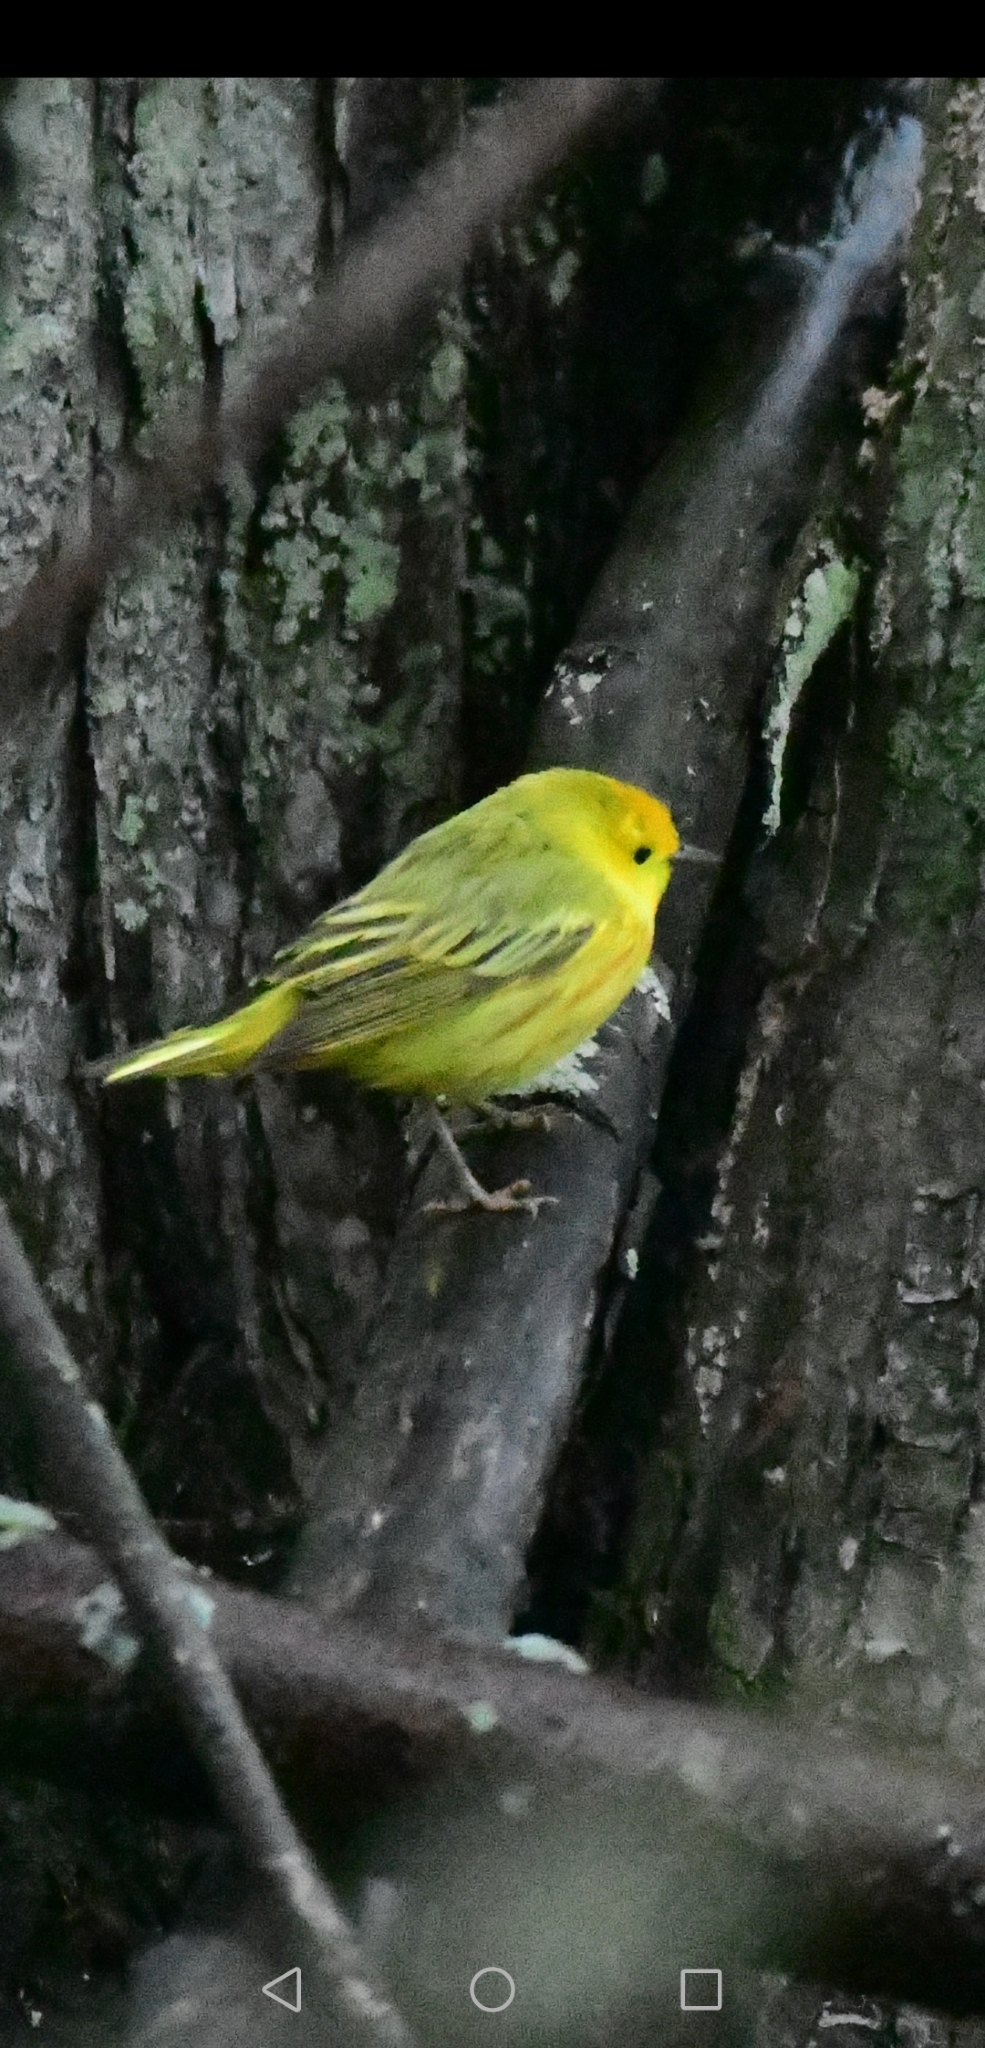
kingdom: Animalia
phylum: Chordata
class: Aves
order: Passeriformes
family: Parulidae
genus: Setophaga
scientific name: Setophaga petechia
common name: Yellow warbler
